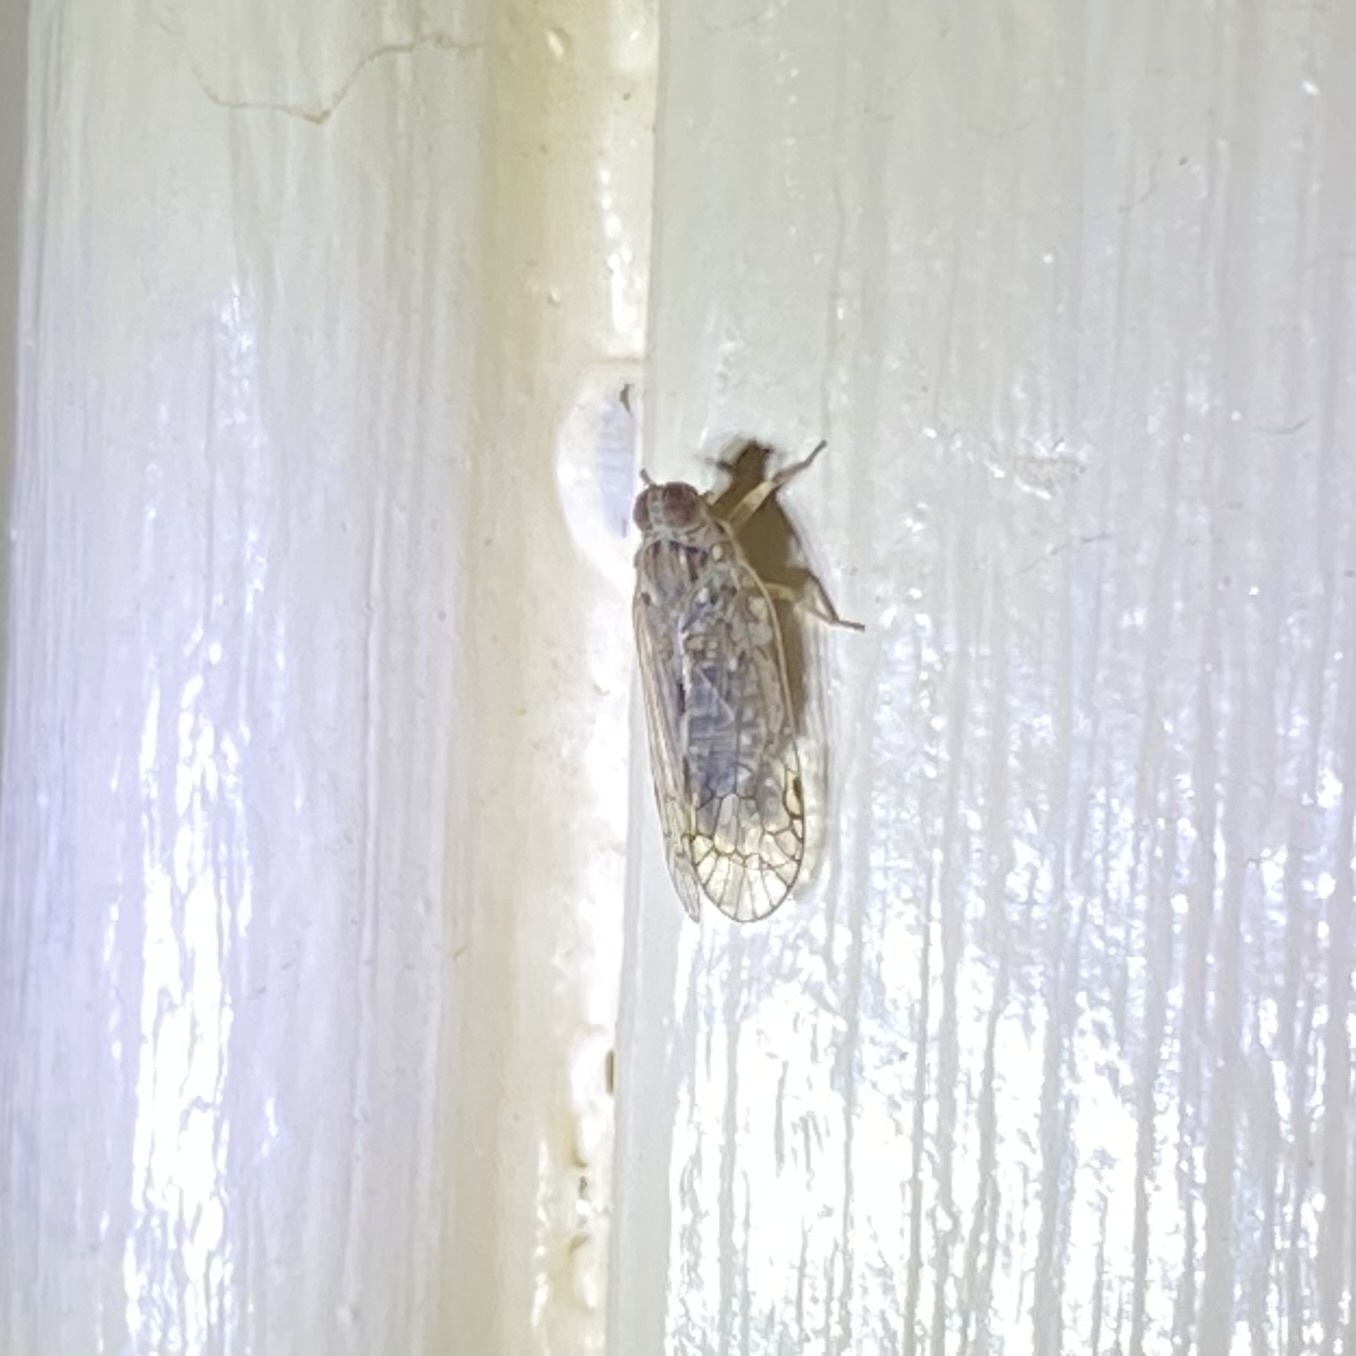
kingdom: Animalia
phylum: Arthropoda
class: Insecta
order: Hemiptera
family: Cixiidae
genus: Oecleus
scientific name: Oecleus
